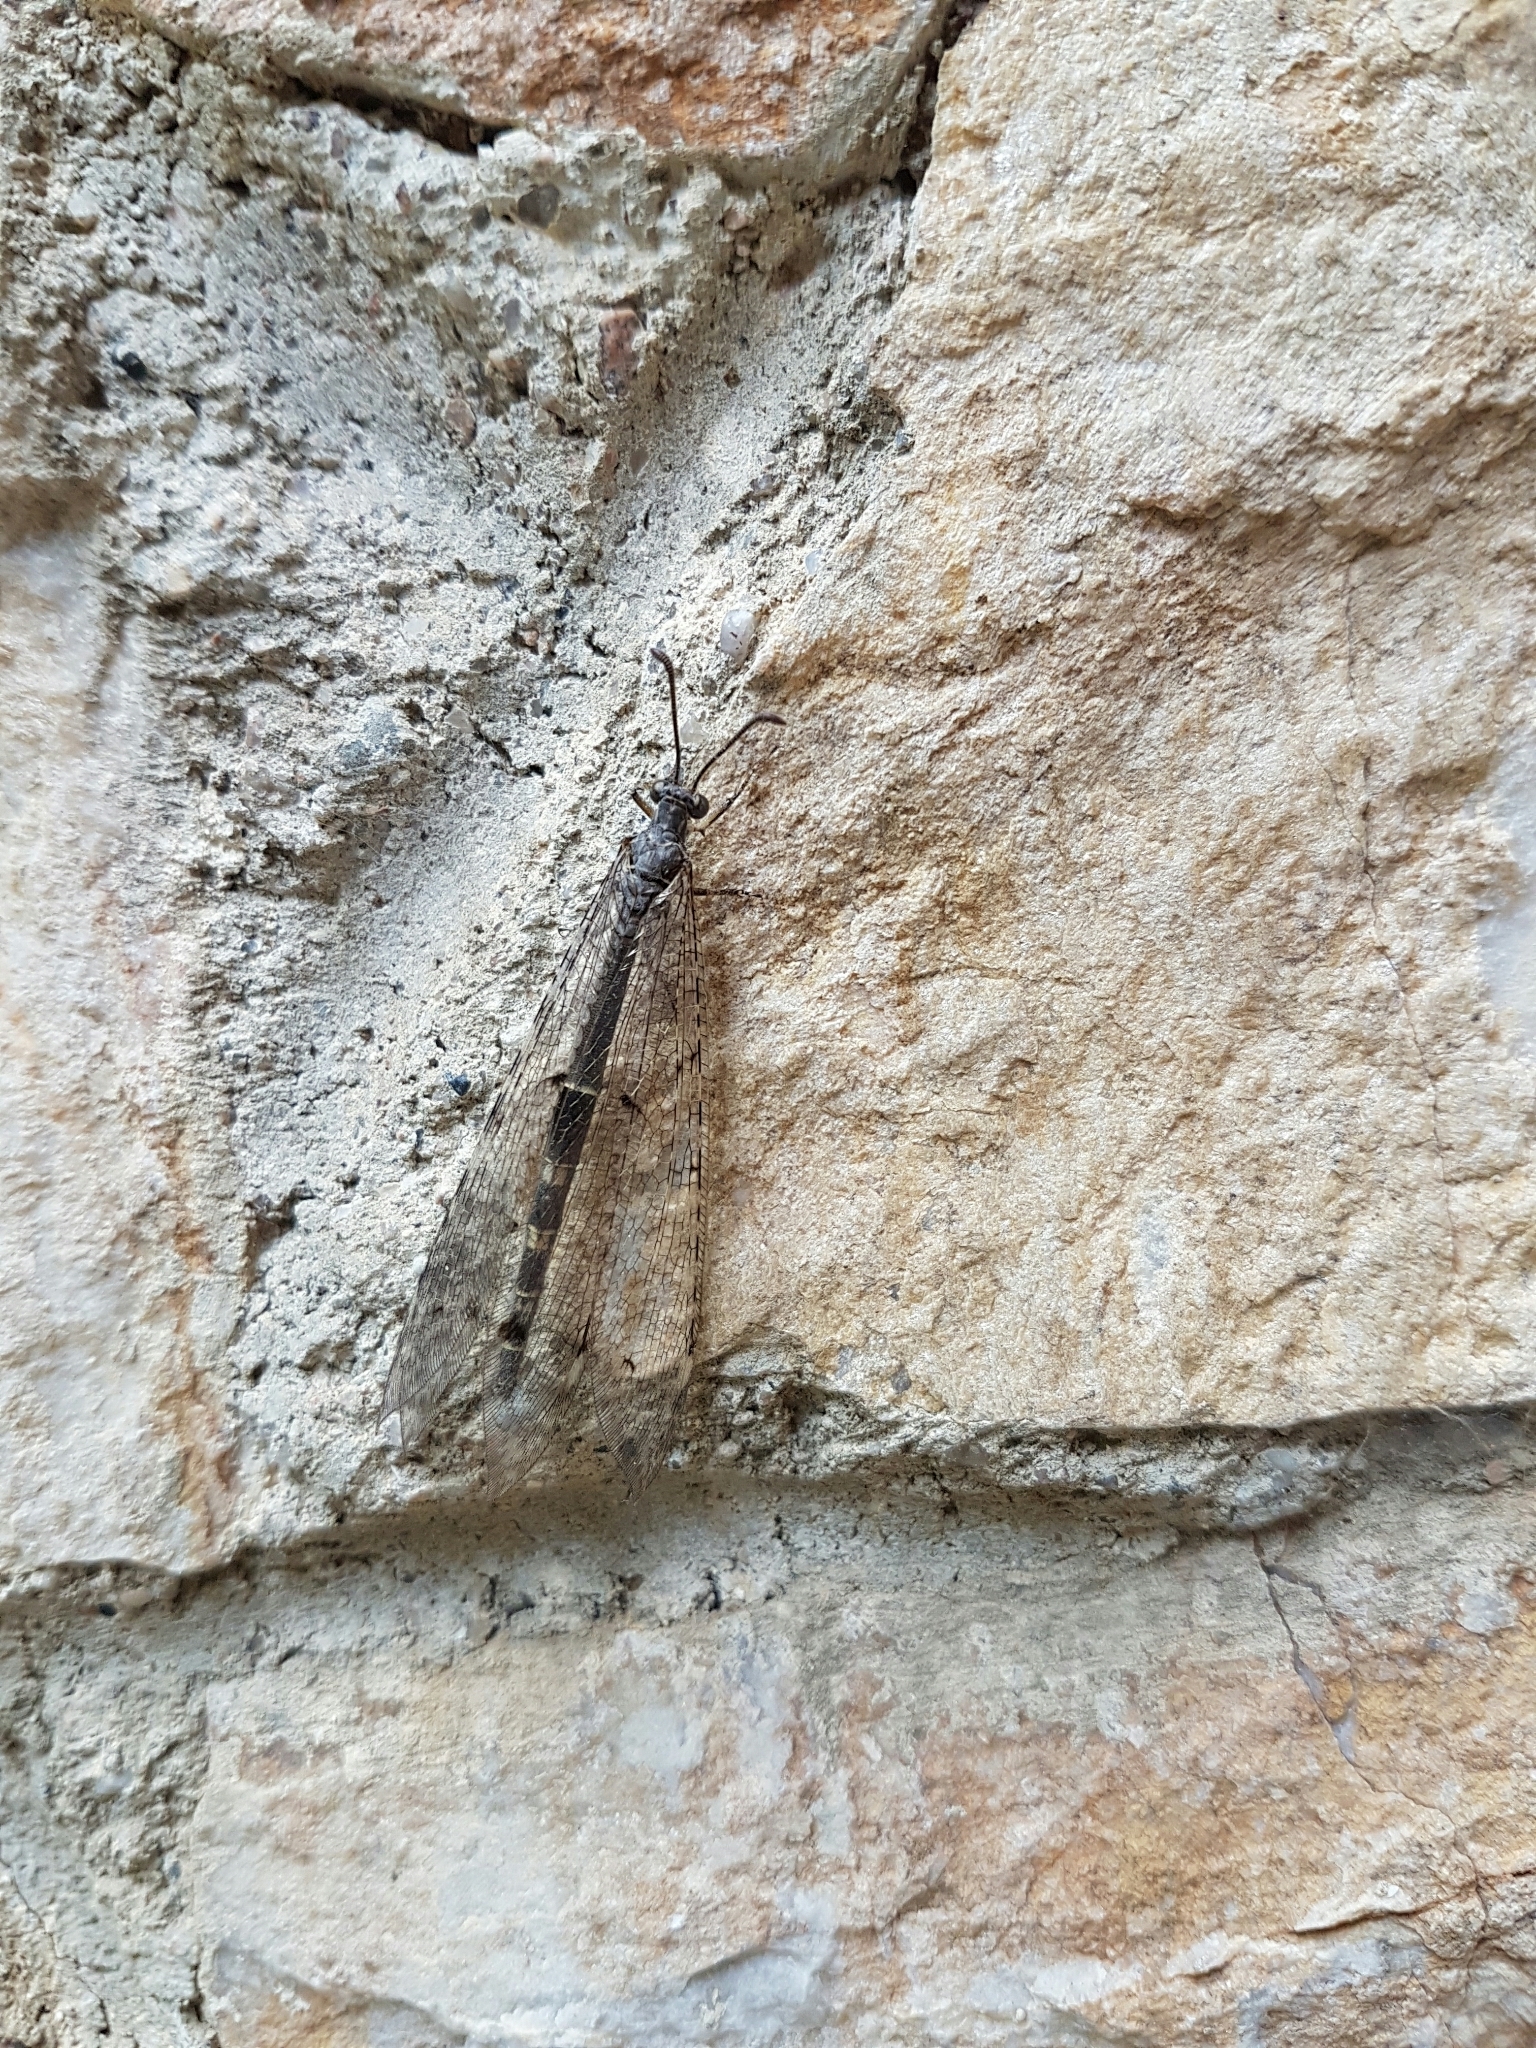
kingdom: Animalia
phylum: Arthropoda
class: Insecta
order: Neuroptera
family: Myrmeleontidae
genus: Distoleon
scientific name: Distoleon tetragrammicus
